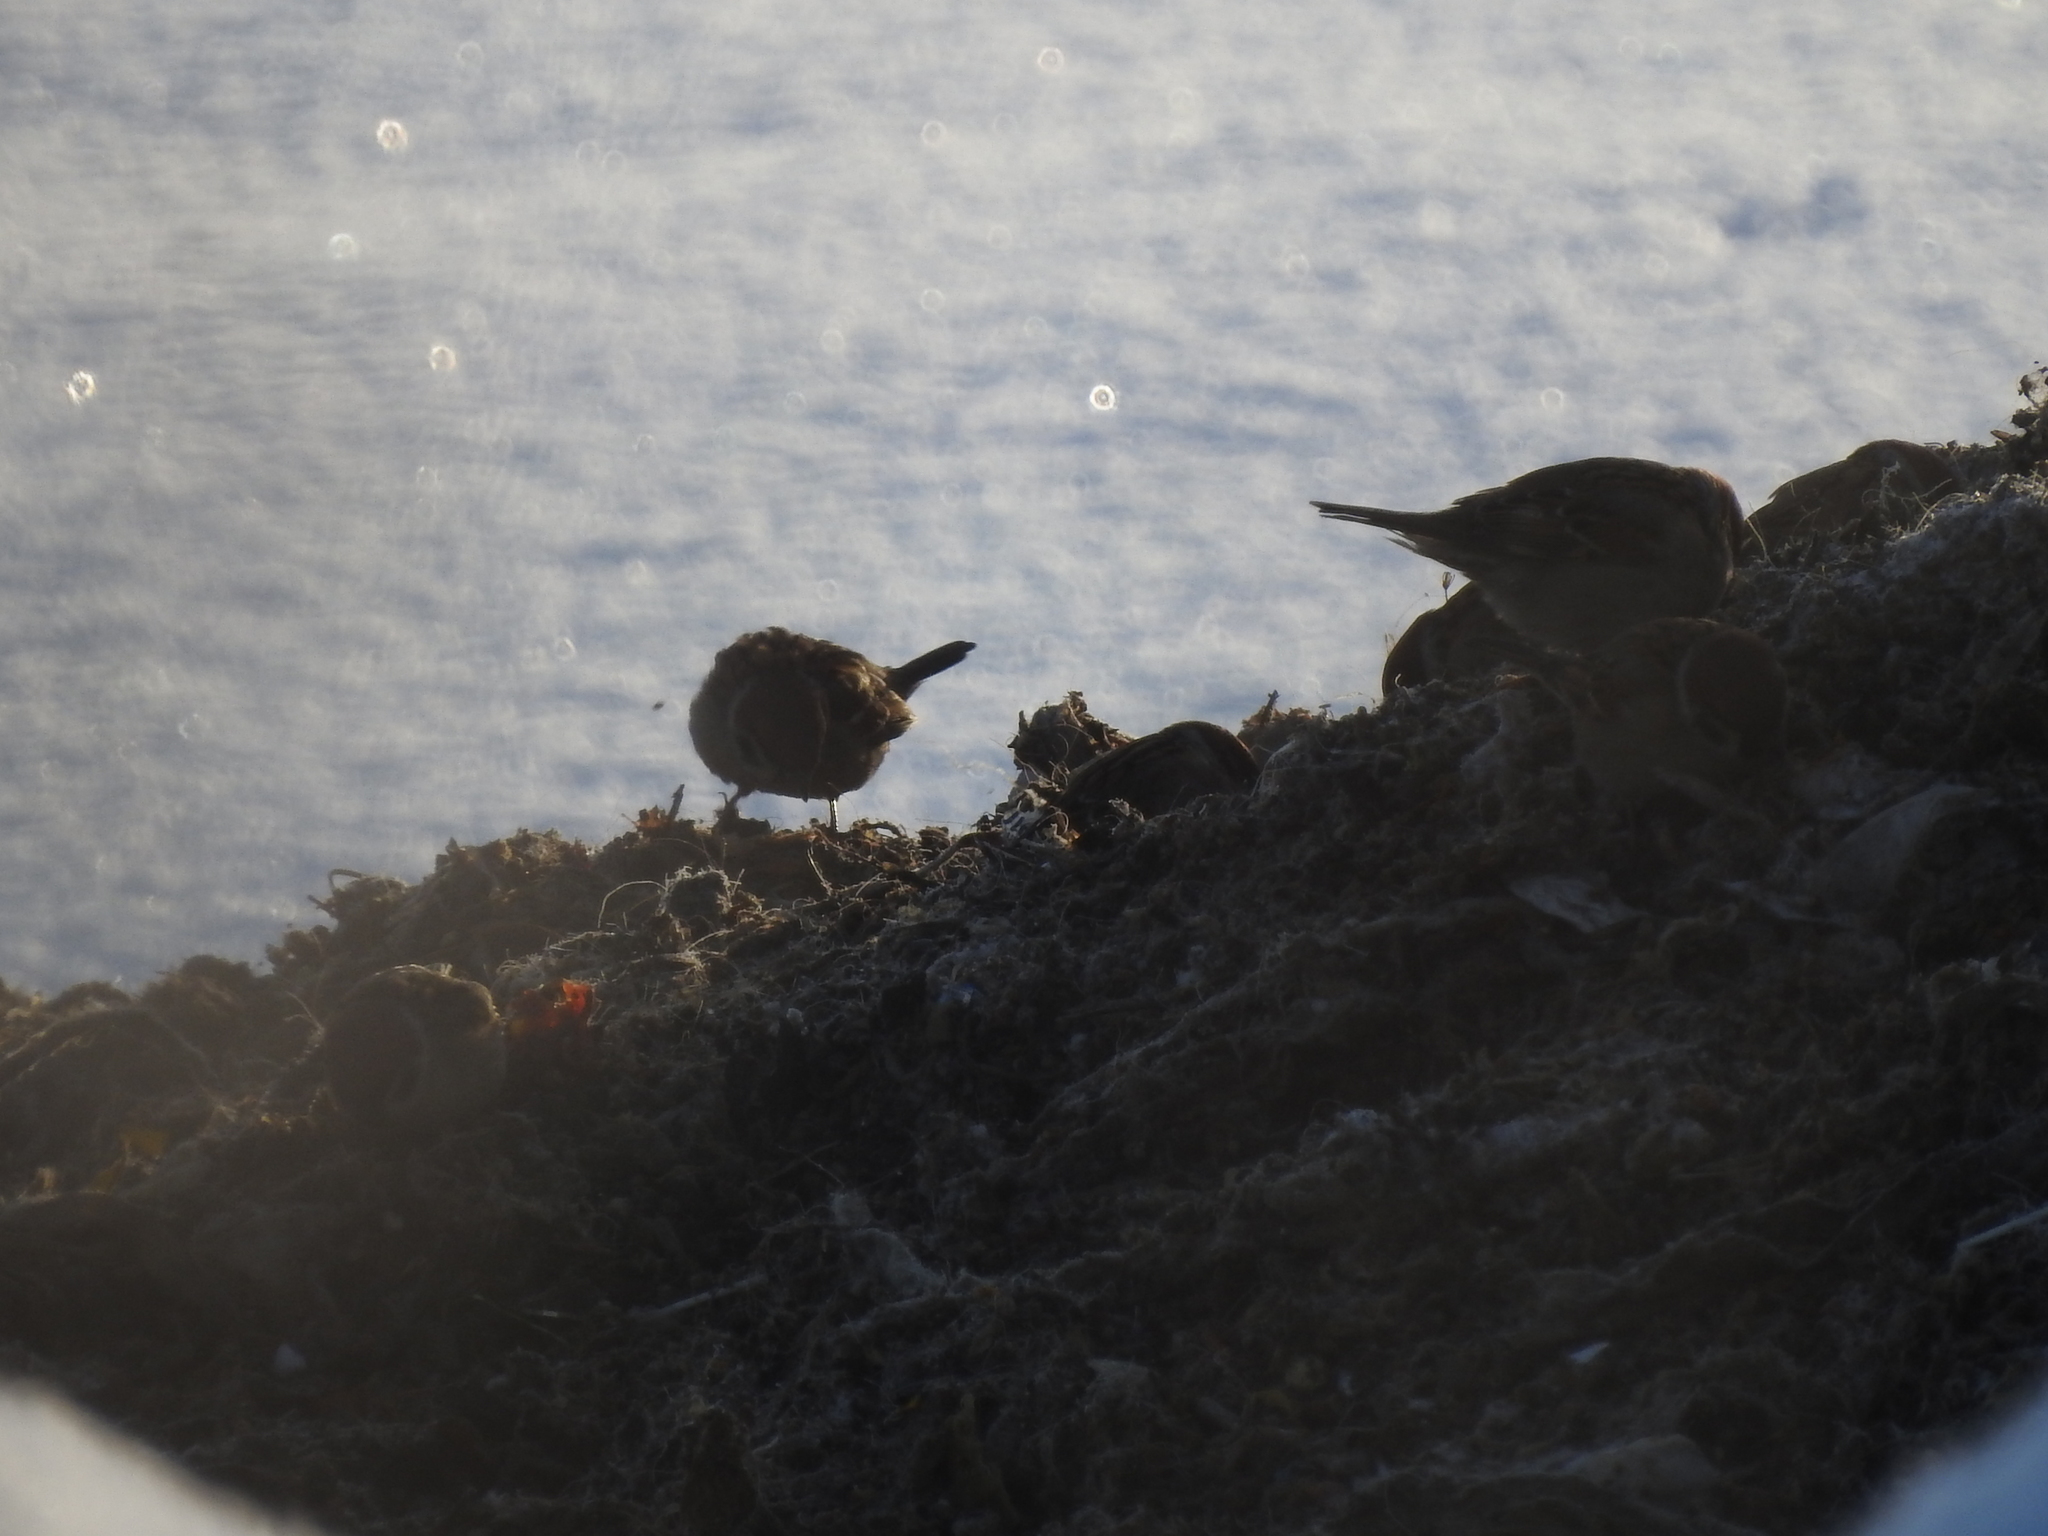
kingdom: Animalia
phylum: Chordata
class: Aves
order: Passeriformes
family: Passeridae
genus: Passer
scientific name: Passer montanus
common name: Eurasian tree sparrow
